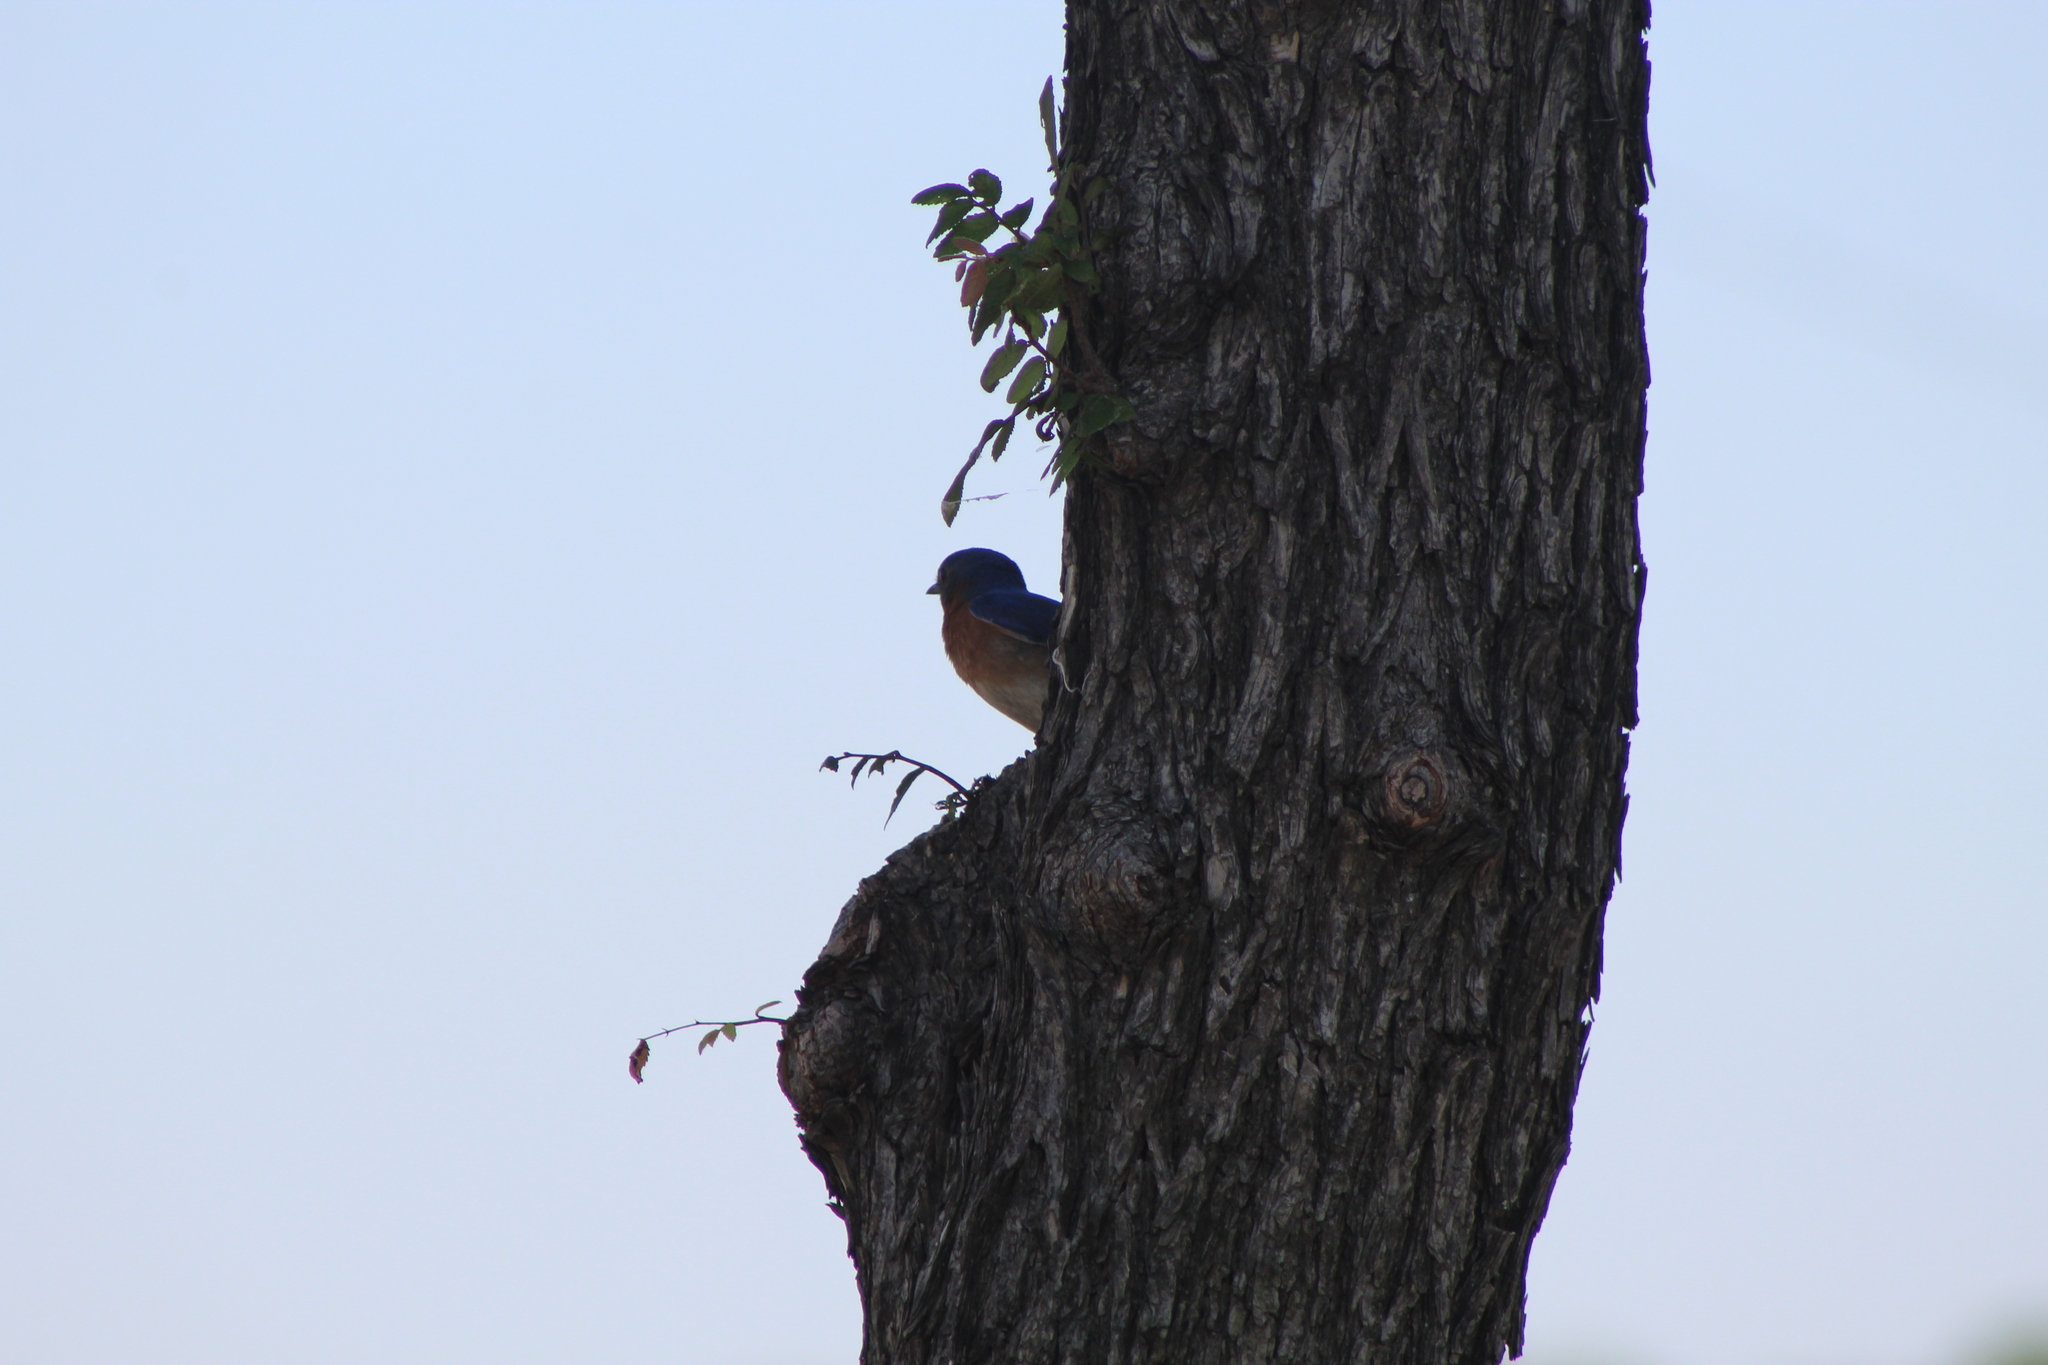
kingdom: Animalia
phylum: Chordata
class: Aves
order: Passeriformes
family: Turdidae
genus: Sialia
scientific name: Sialia sialis
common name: Eastern bluebird
